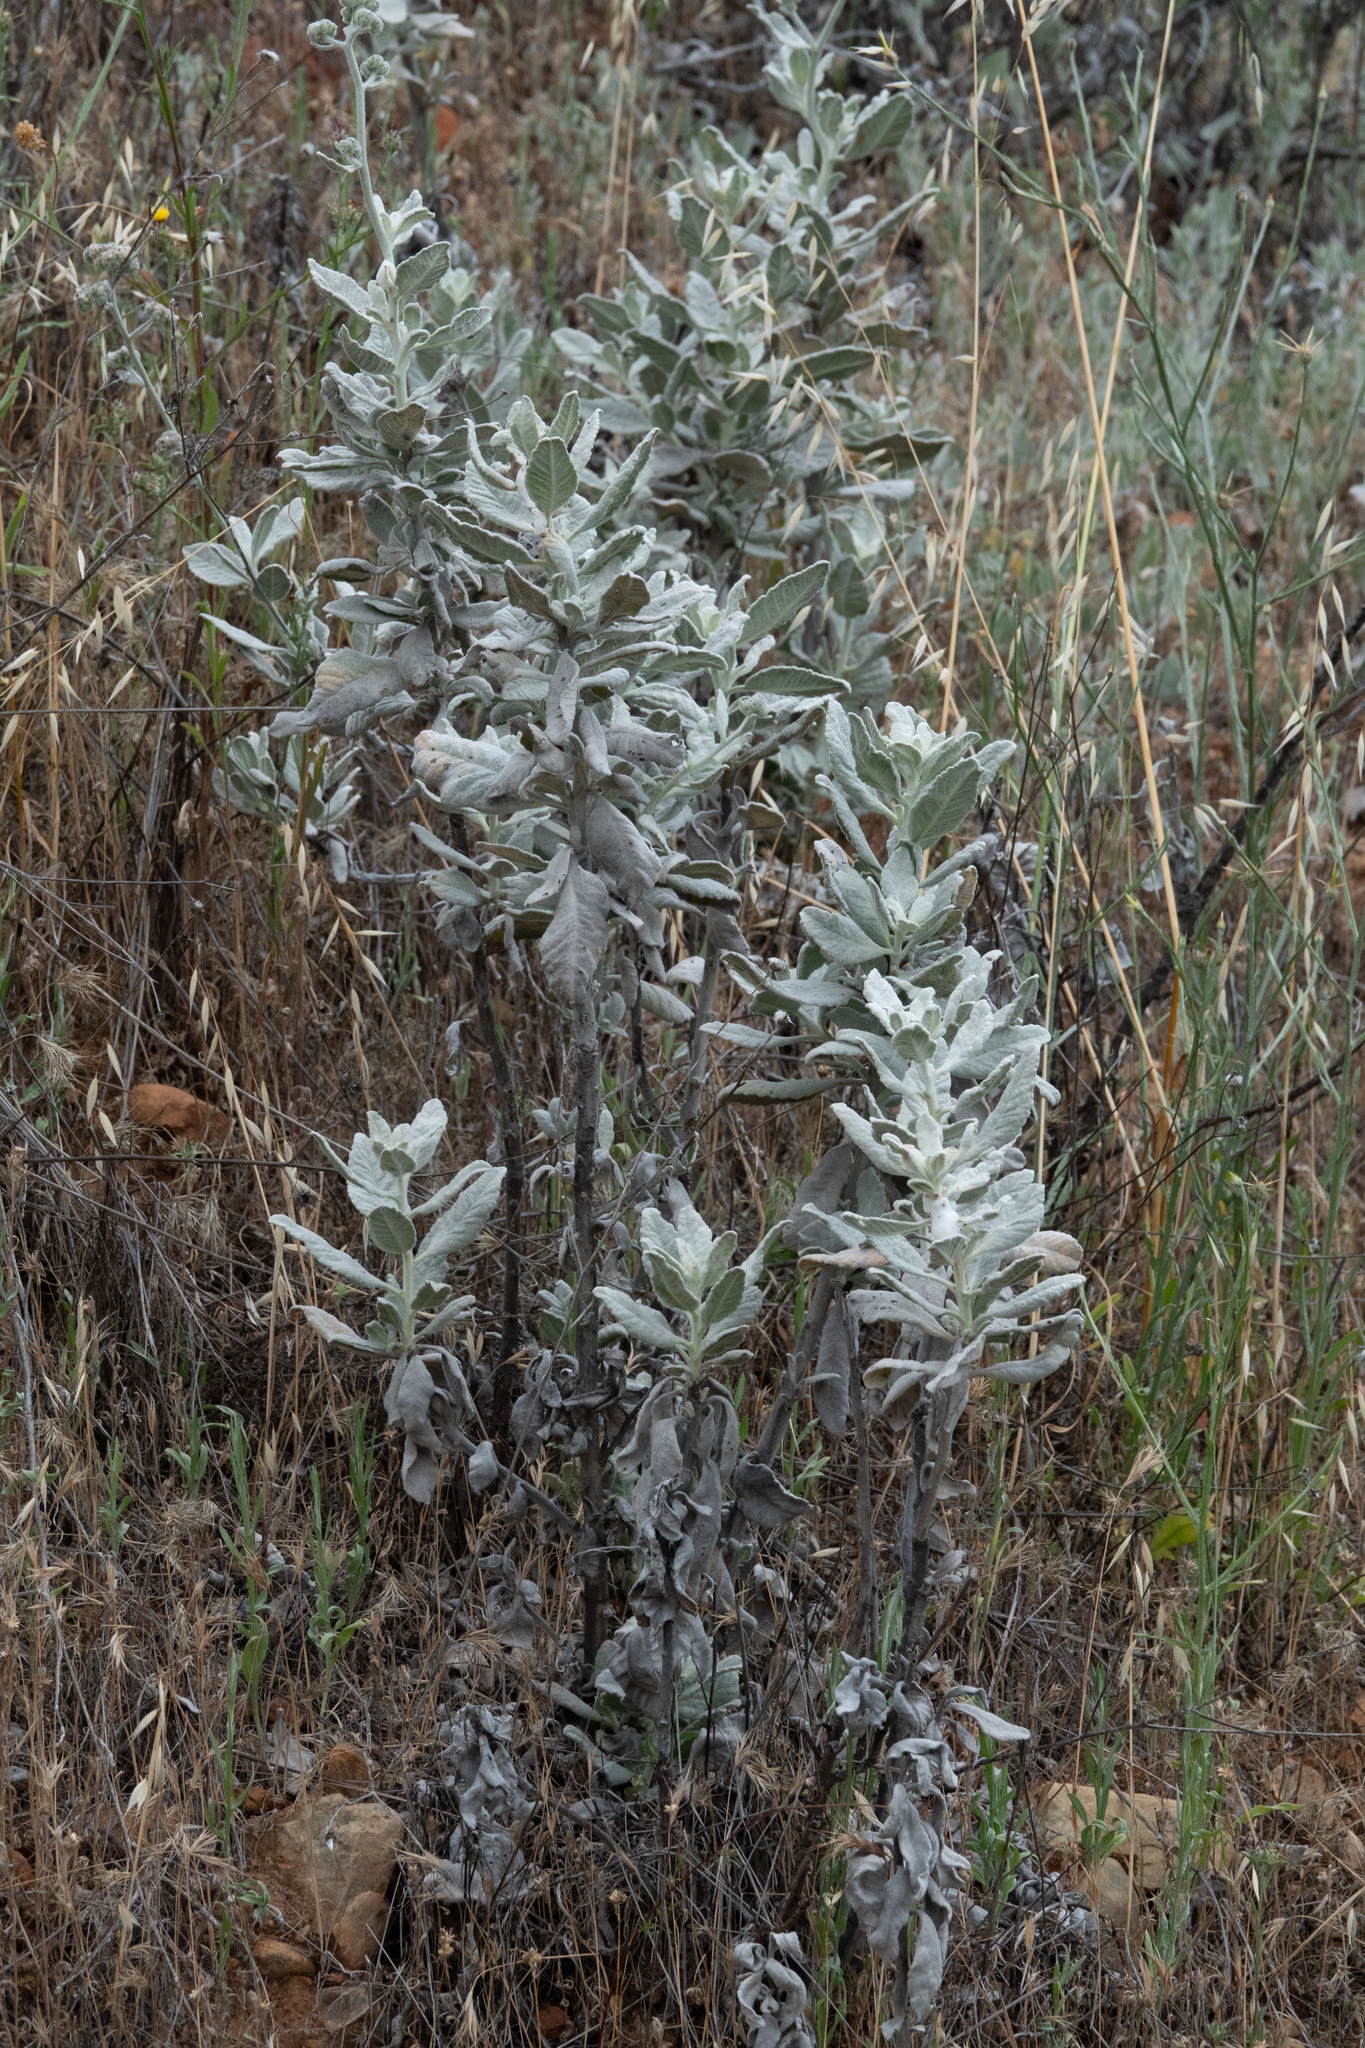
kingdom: Plantae
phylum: Tracheophyta
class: Magnoliopsida
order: Boraginales
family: Namaceae
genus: Eriodictyon
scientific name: Eriodictyon tomentosum
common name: Woolly yerba-santa
